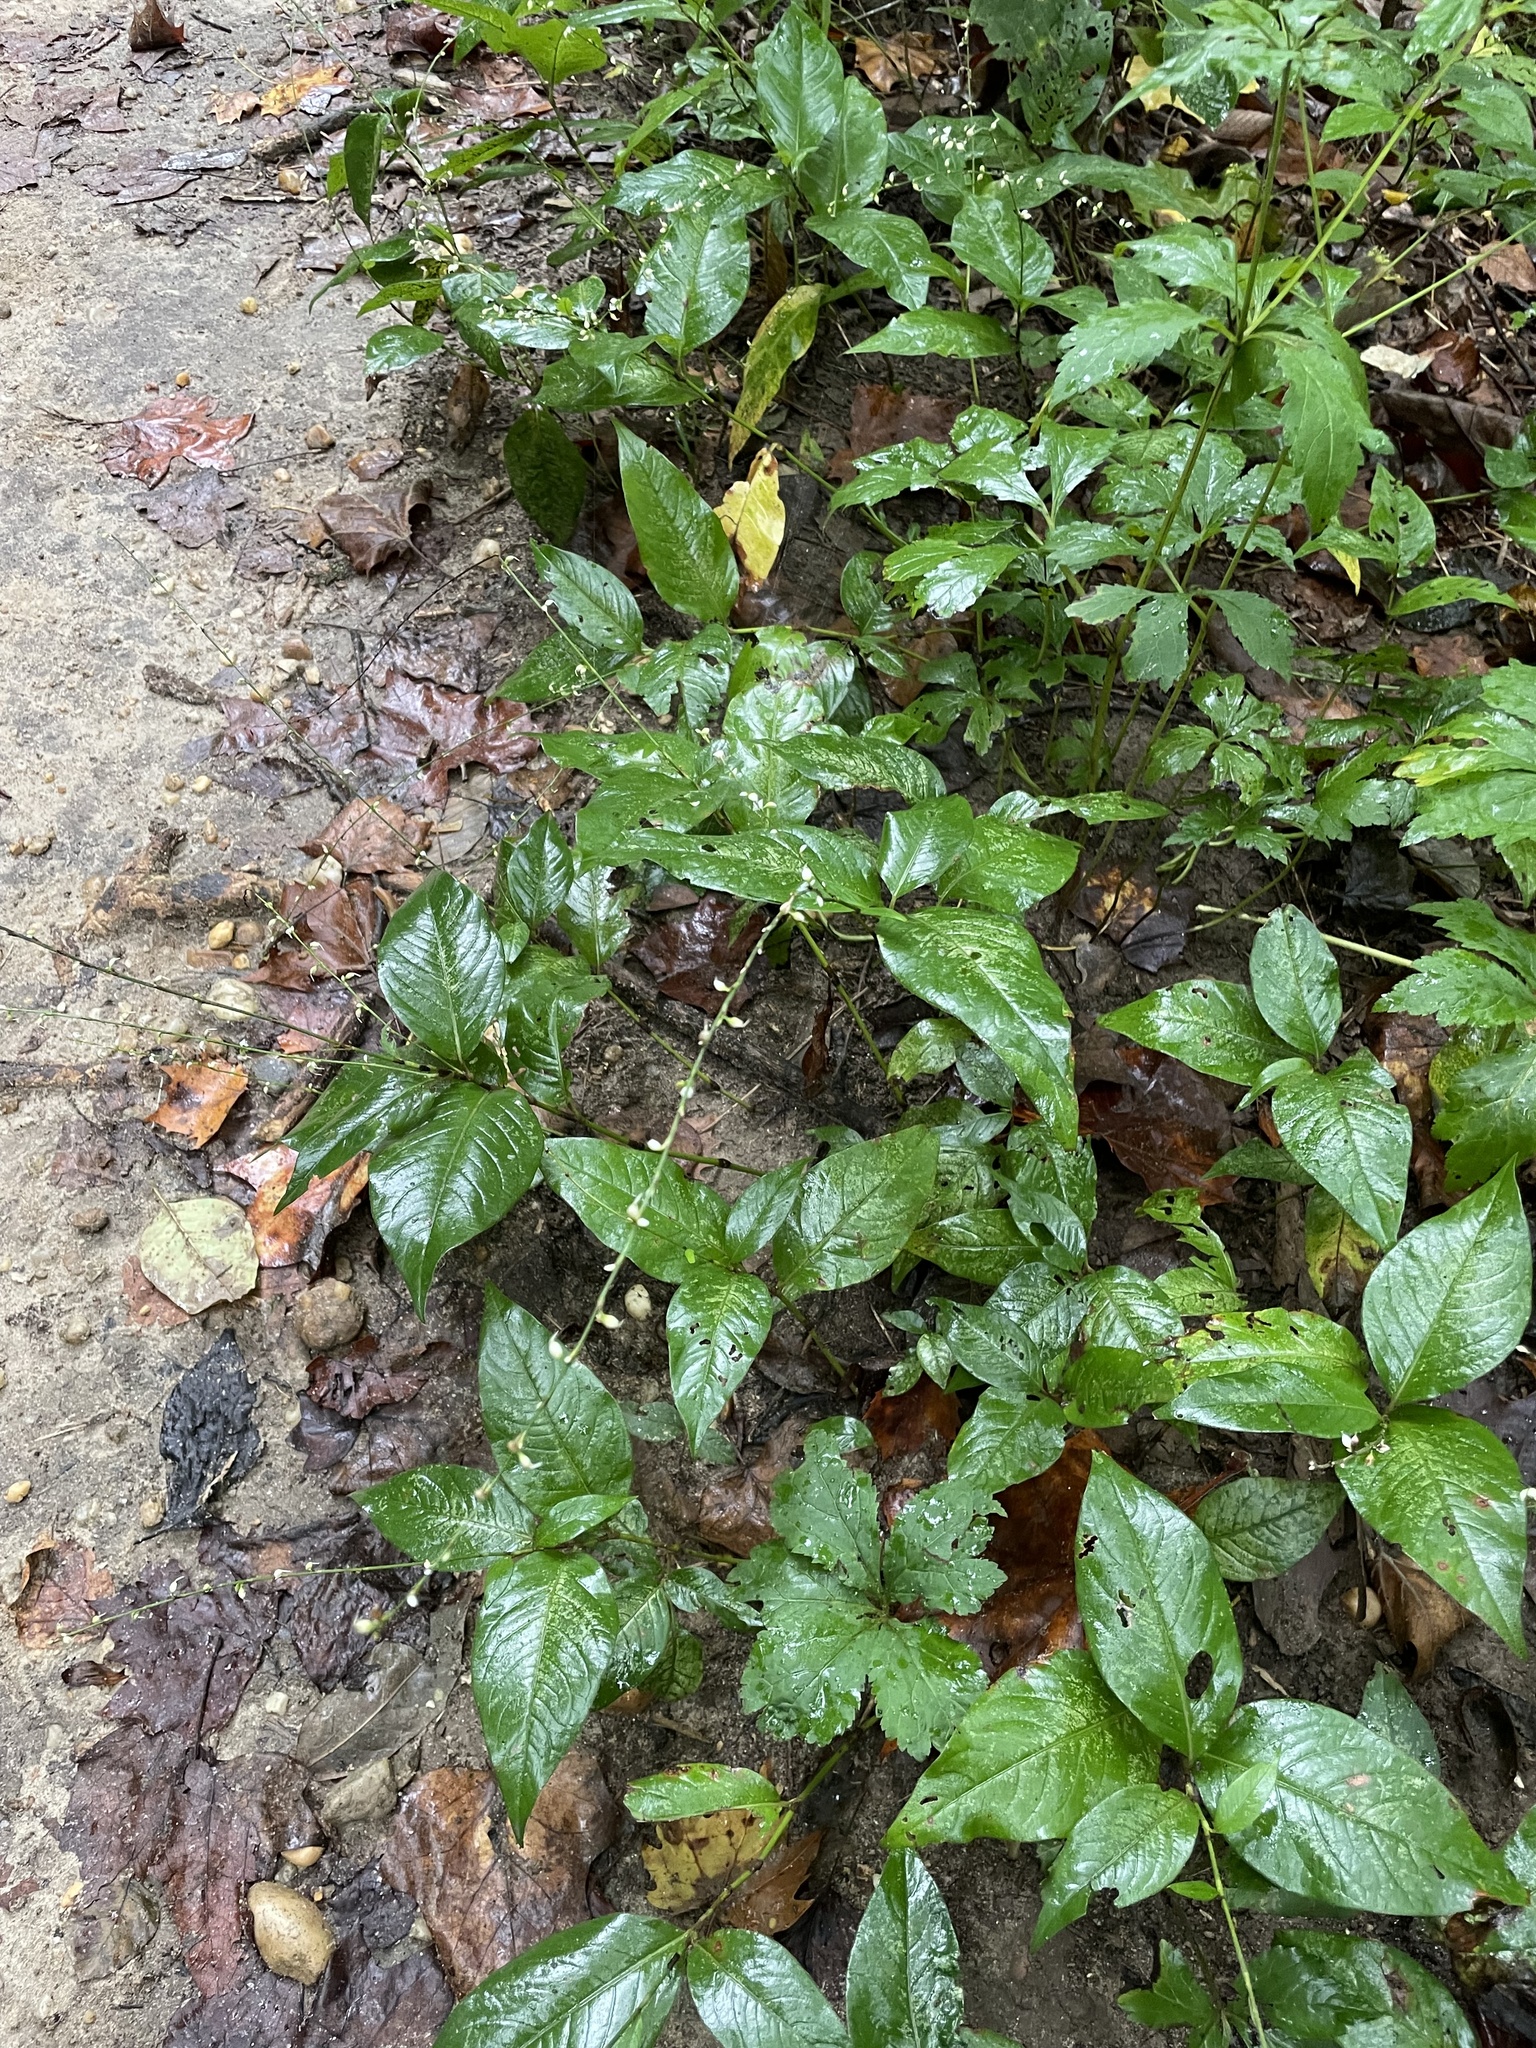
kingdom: Plantae
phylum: Tracheophyta
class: Magnoliopsida
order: Caryophyllales
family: Polygonaceae
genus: Persicaria
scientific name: Persicaria virginiana
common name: Jumpseed
